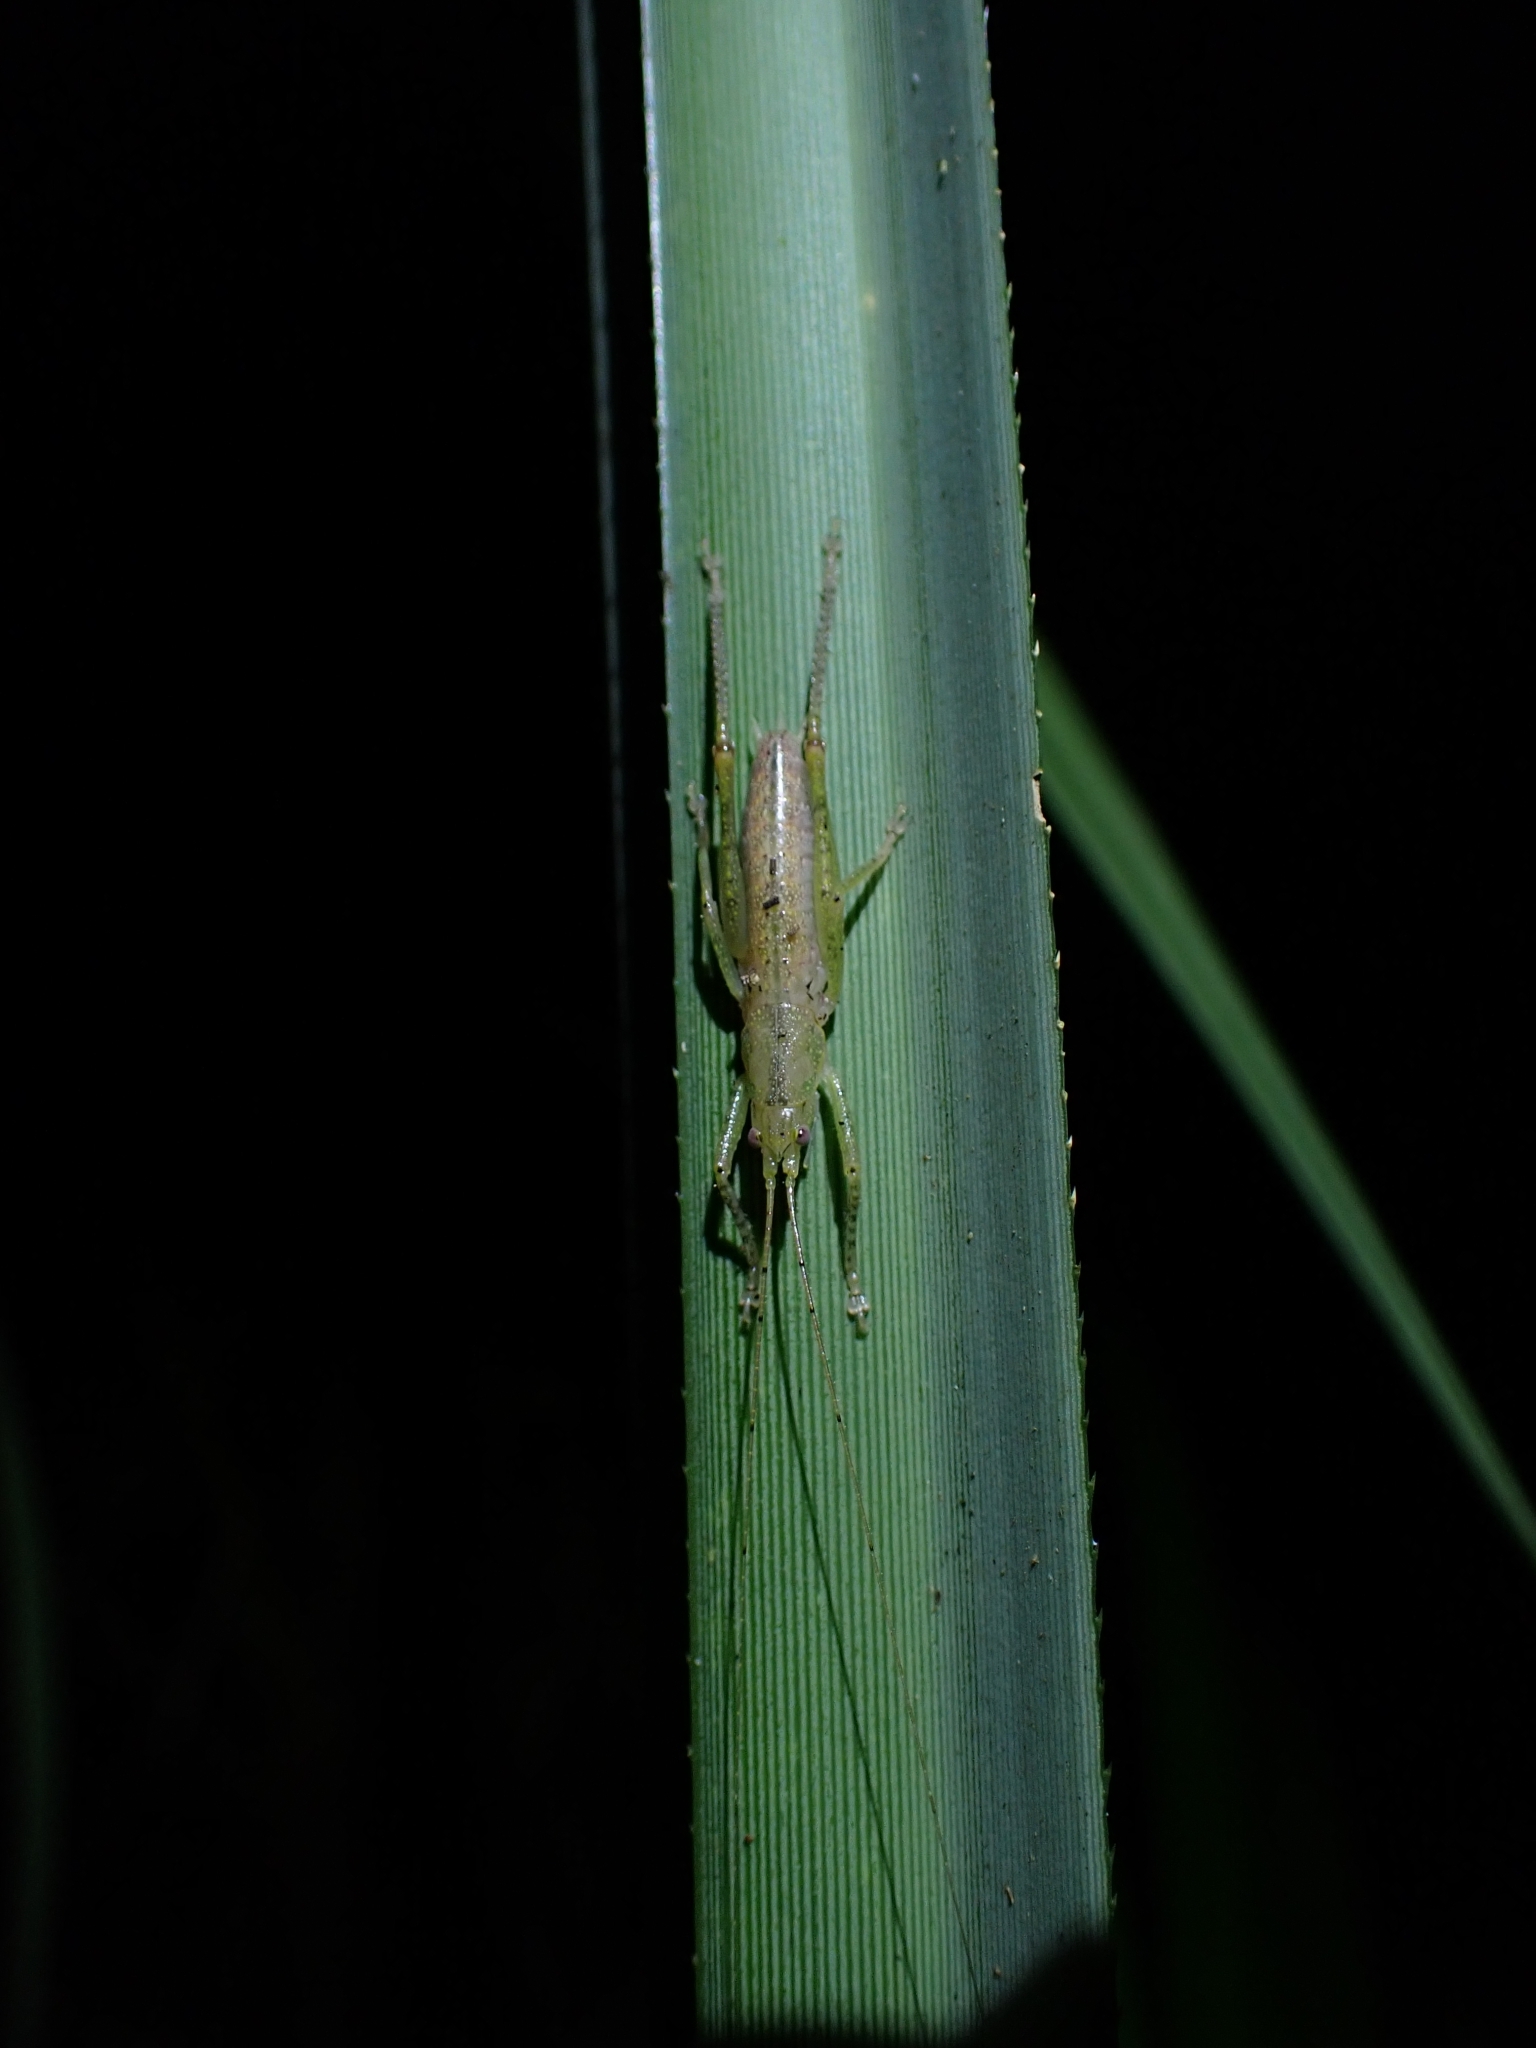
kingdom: Animalia
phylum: Arthropoda
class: Insecta
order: Orthoptera
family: Tettigoniidae
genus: Austrosalomona
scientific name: Austrosalomona destructor
